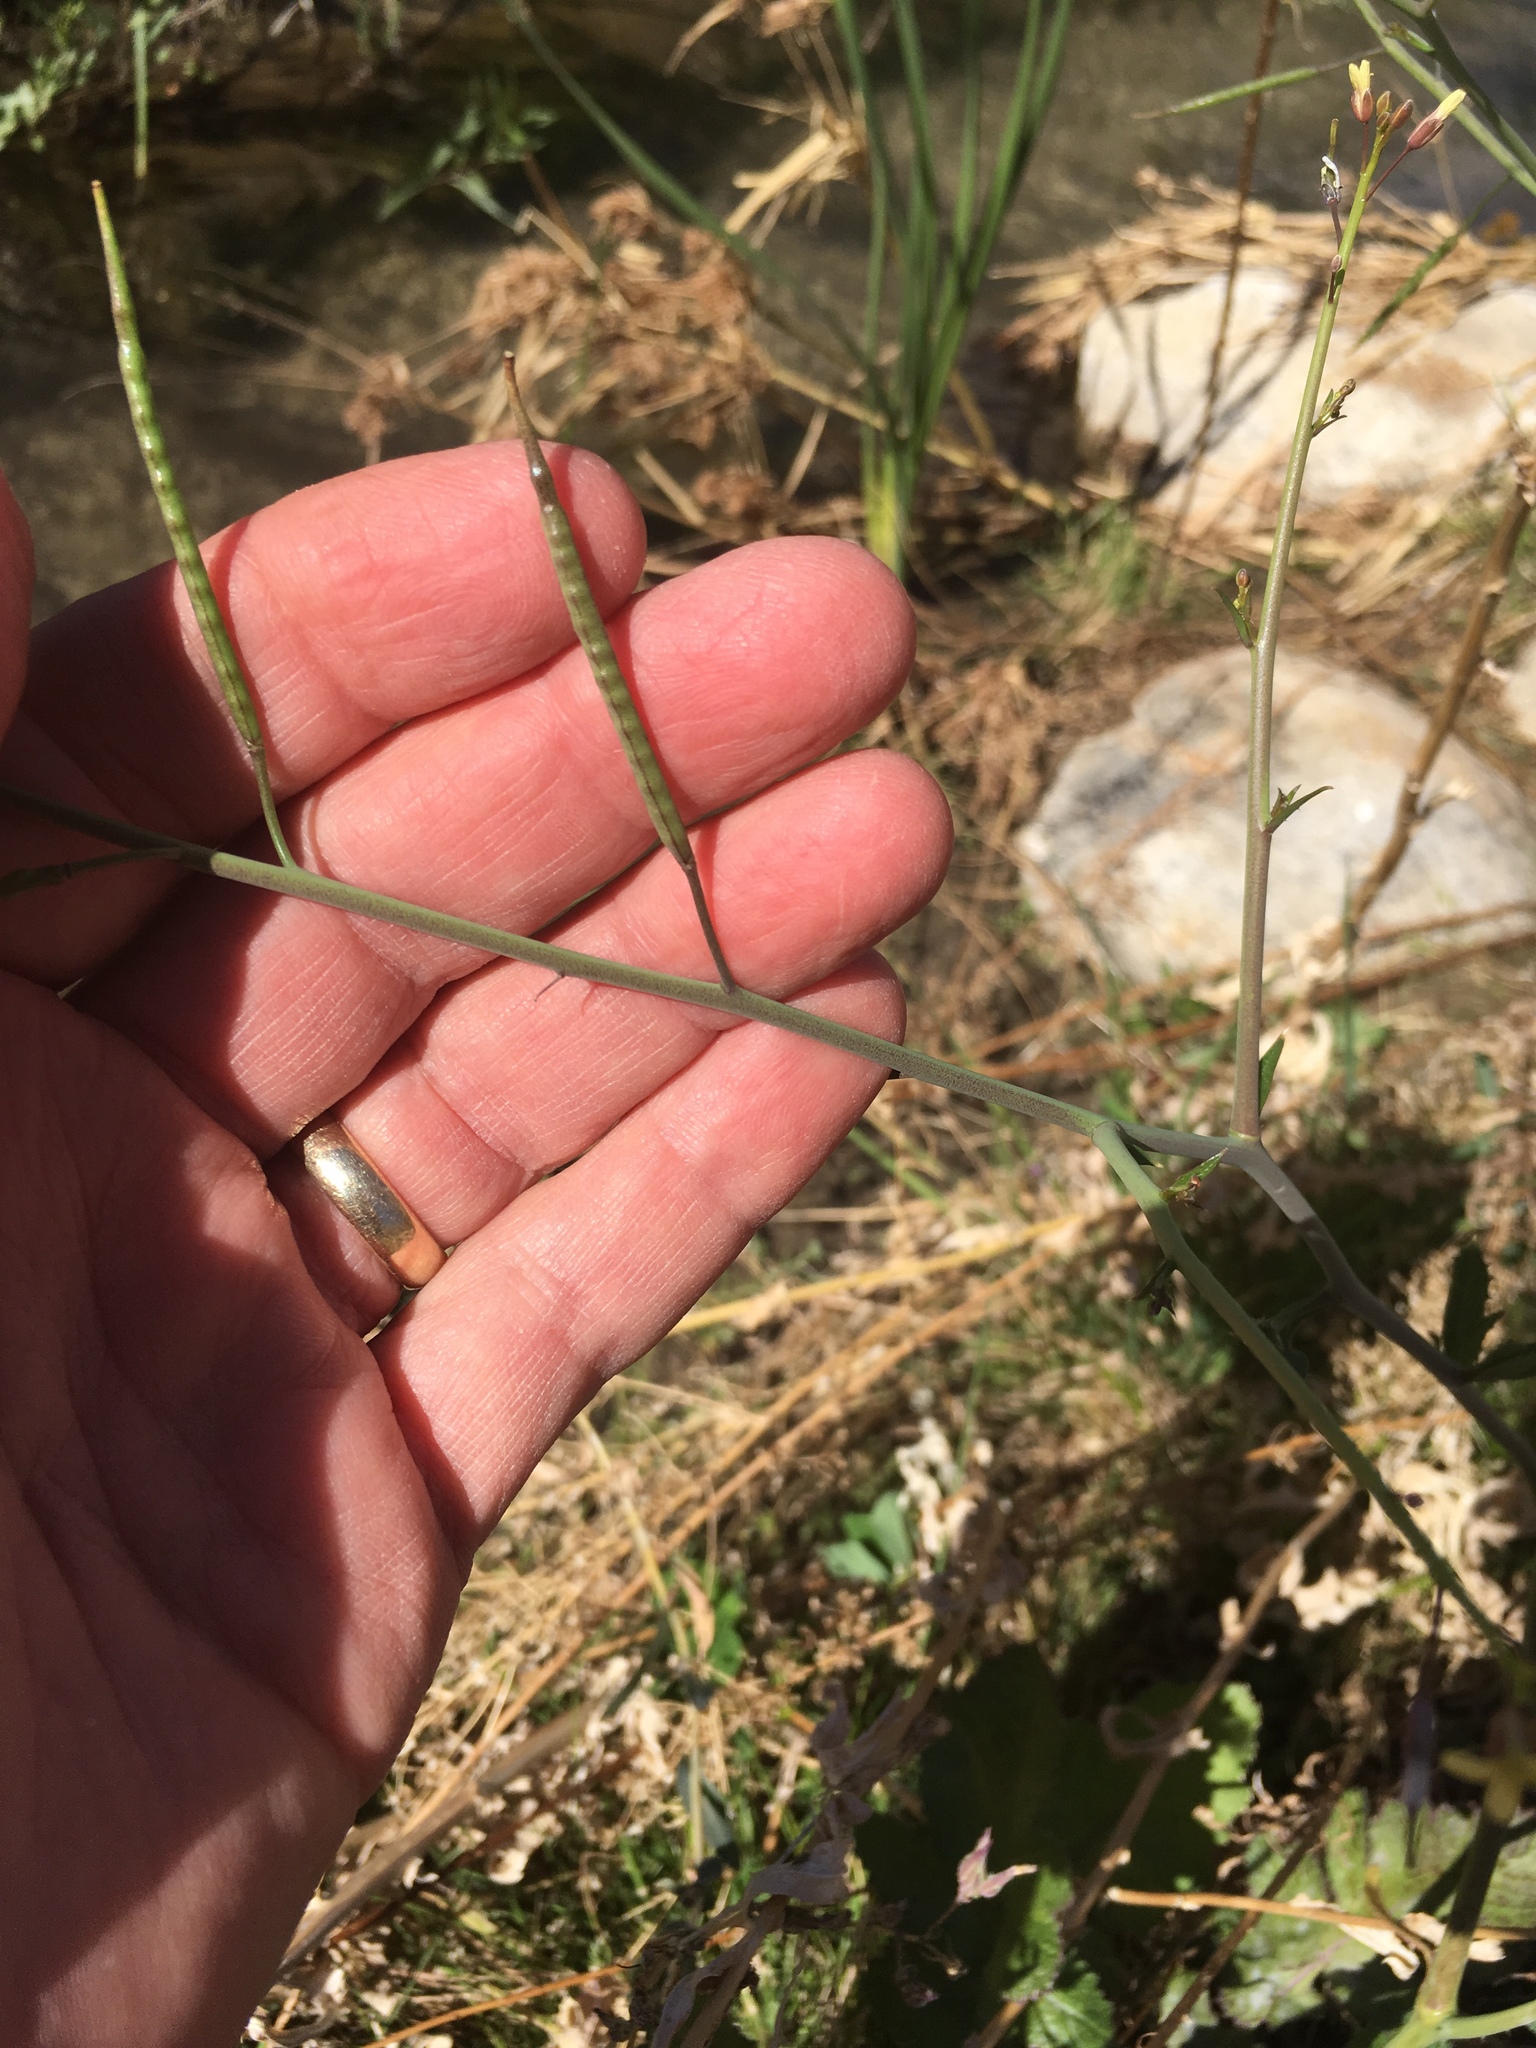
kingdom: Plantae
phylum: Tracheophyta
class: Magnoliopsida
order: Brassicales
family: Brassicaceae
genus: Brassica
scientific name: Brassica tournefortii
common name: Pale cabbage
